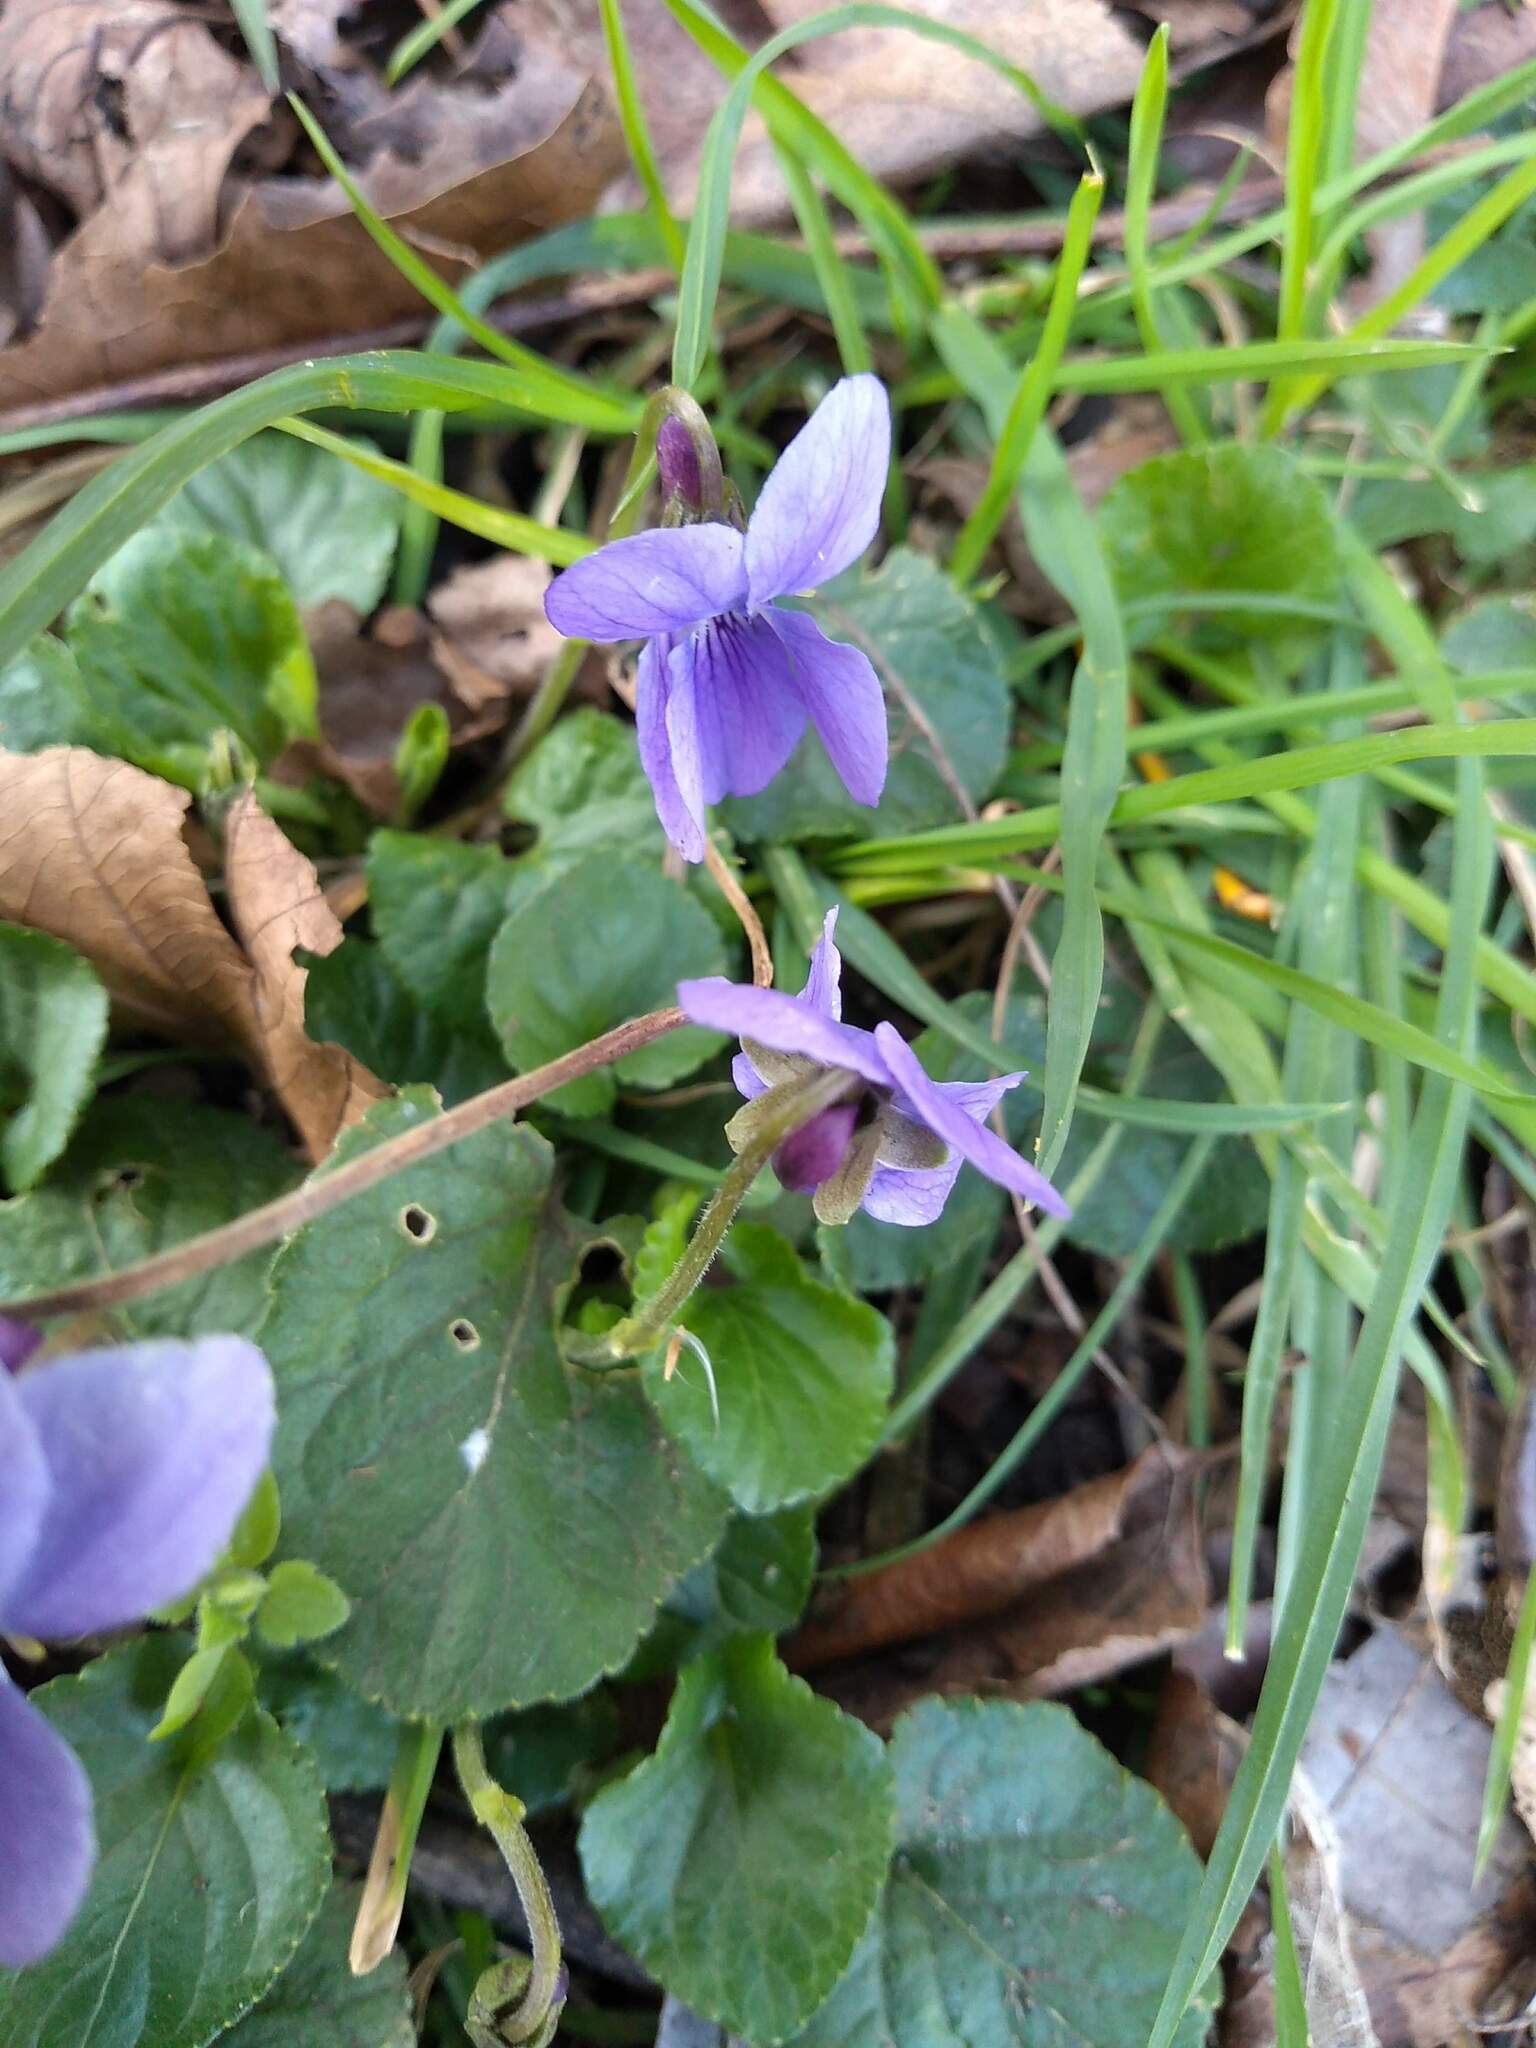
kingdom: Plantae
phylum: Tracheophyta
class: Magnoliopsida
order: Malpighiales
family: Violaceae
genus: Viola
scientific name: Viola odorata
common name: Sweet violet
